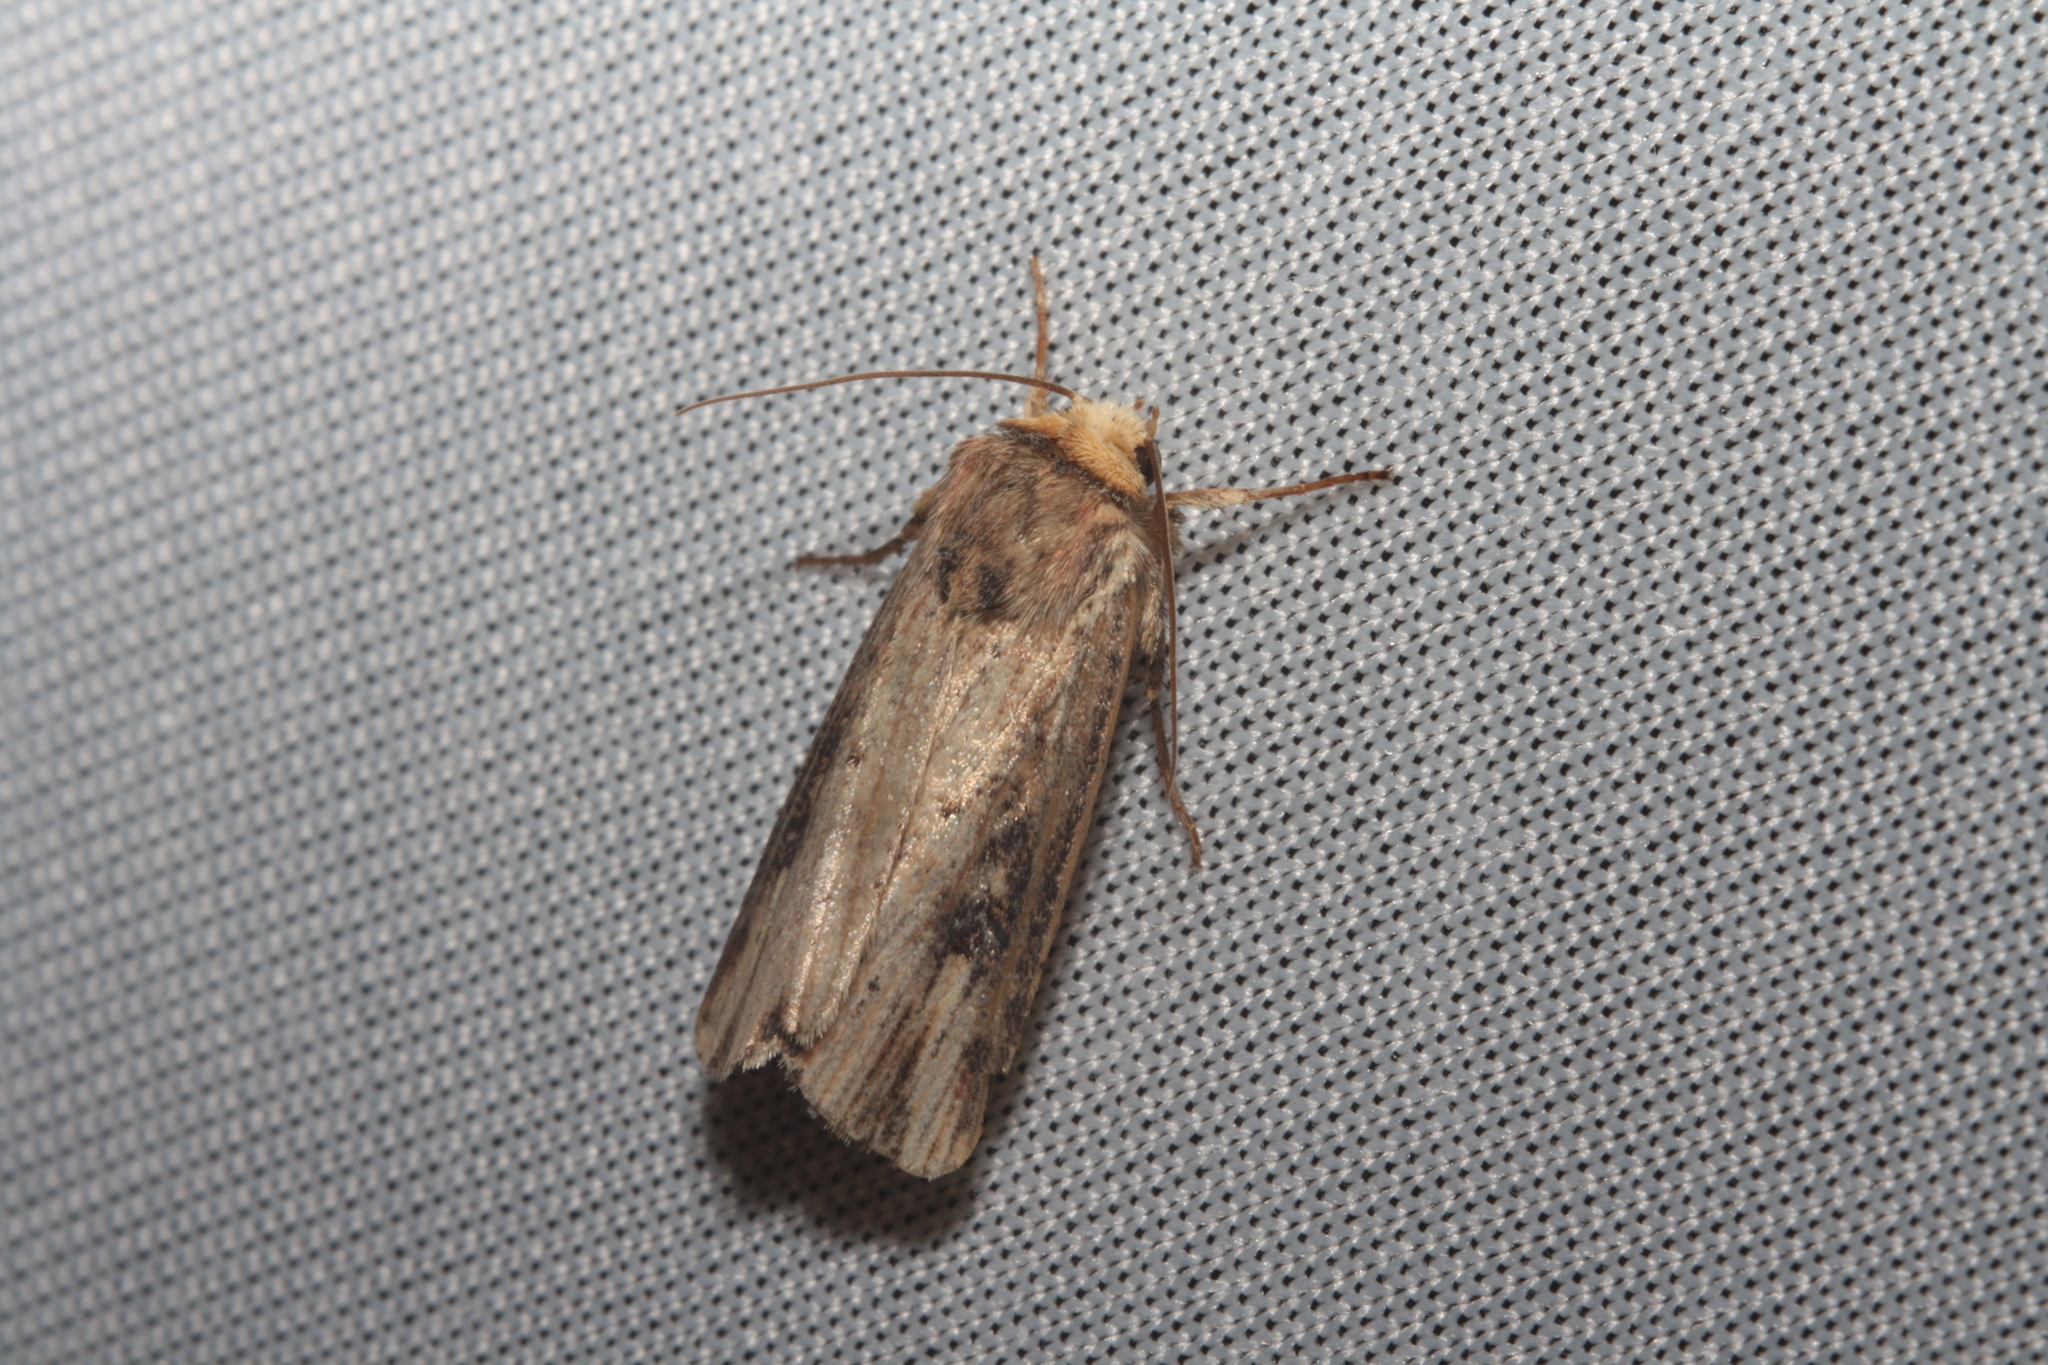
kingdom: Animalia
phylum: Arthropoda
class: Insecta
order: Lepidoptera
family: Noctuidae
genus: Axylia
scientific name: Axylia putris
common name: Flame
